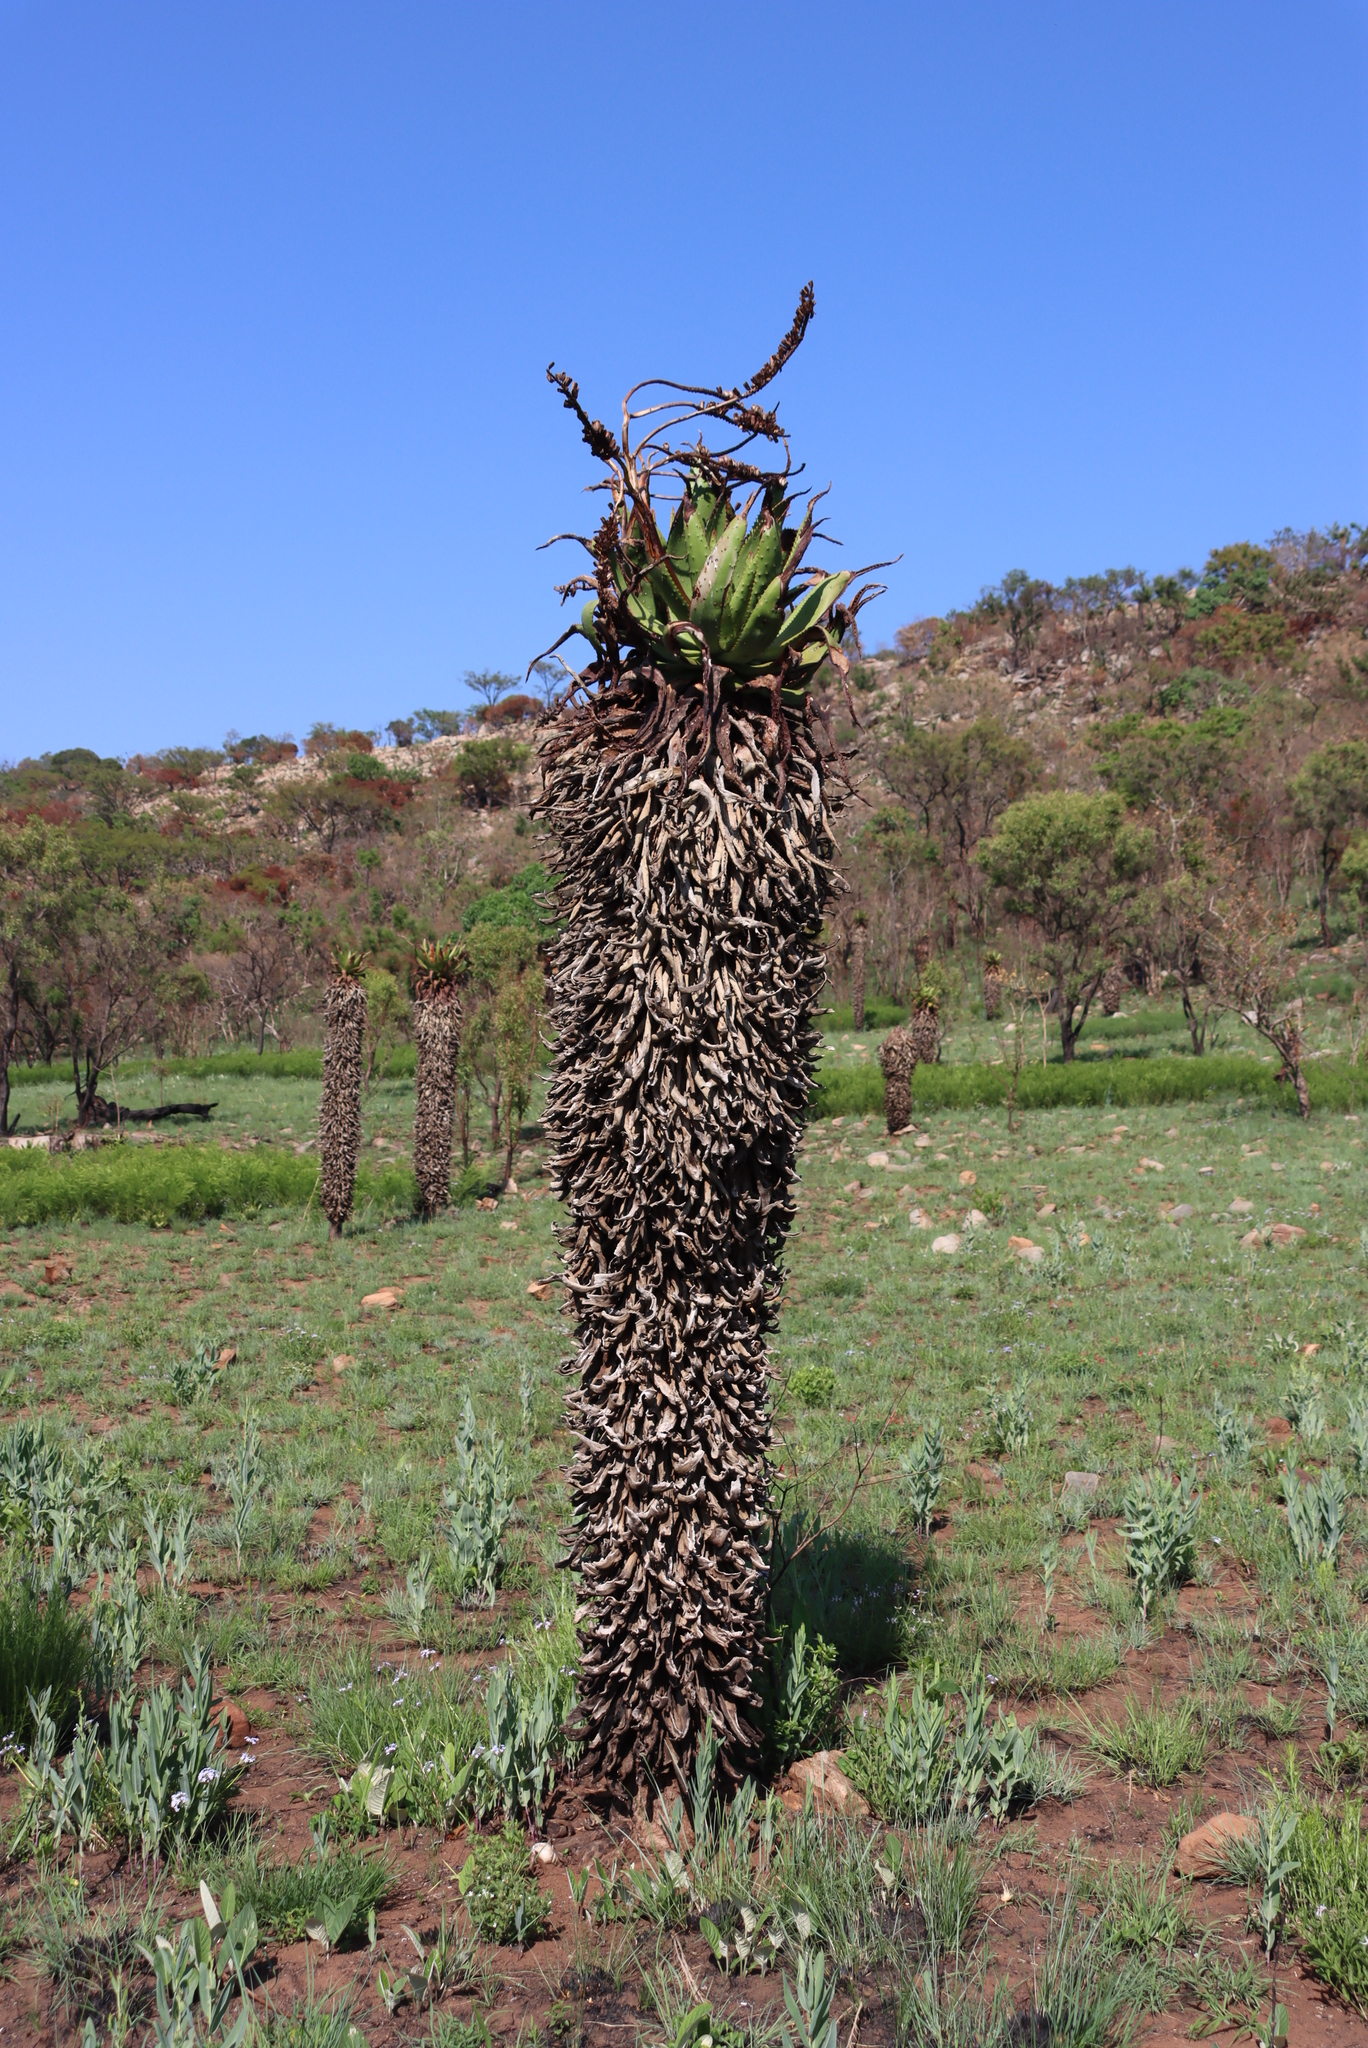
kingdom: Plantae
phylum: Tracheophyta
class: Liliopsida
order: Asparagales
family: Asphodelaceae
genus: Aloe
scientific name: Aloe marlothii
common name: Flat-flowered aloe
